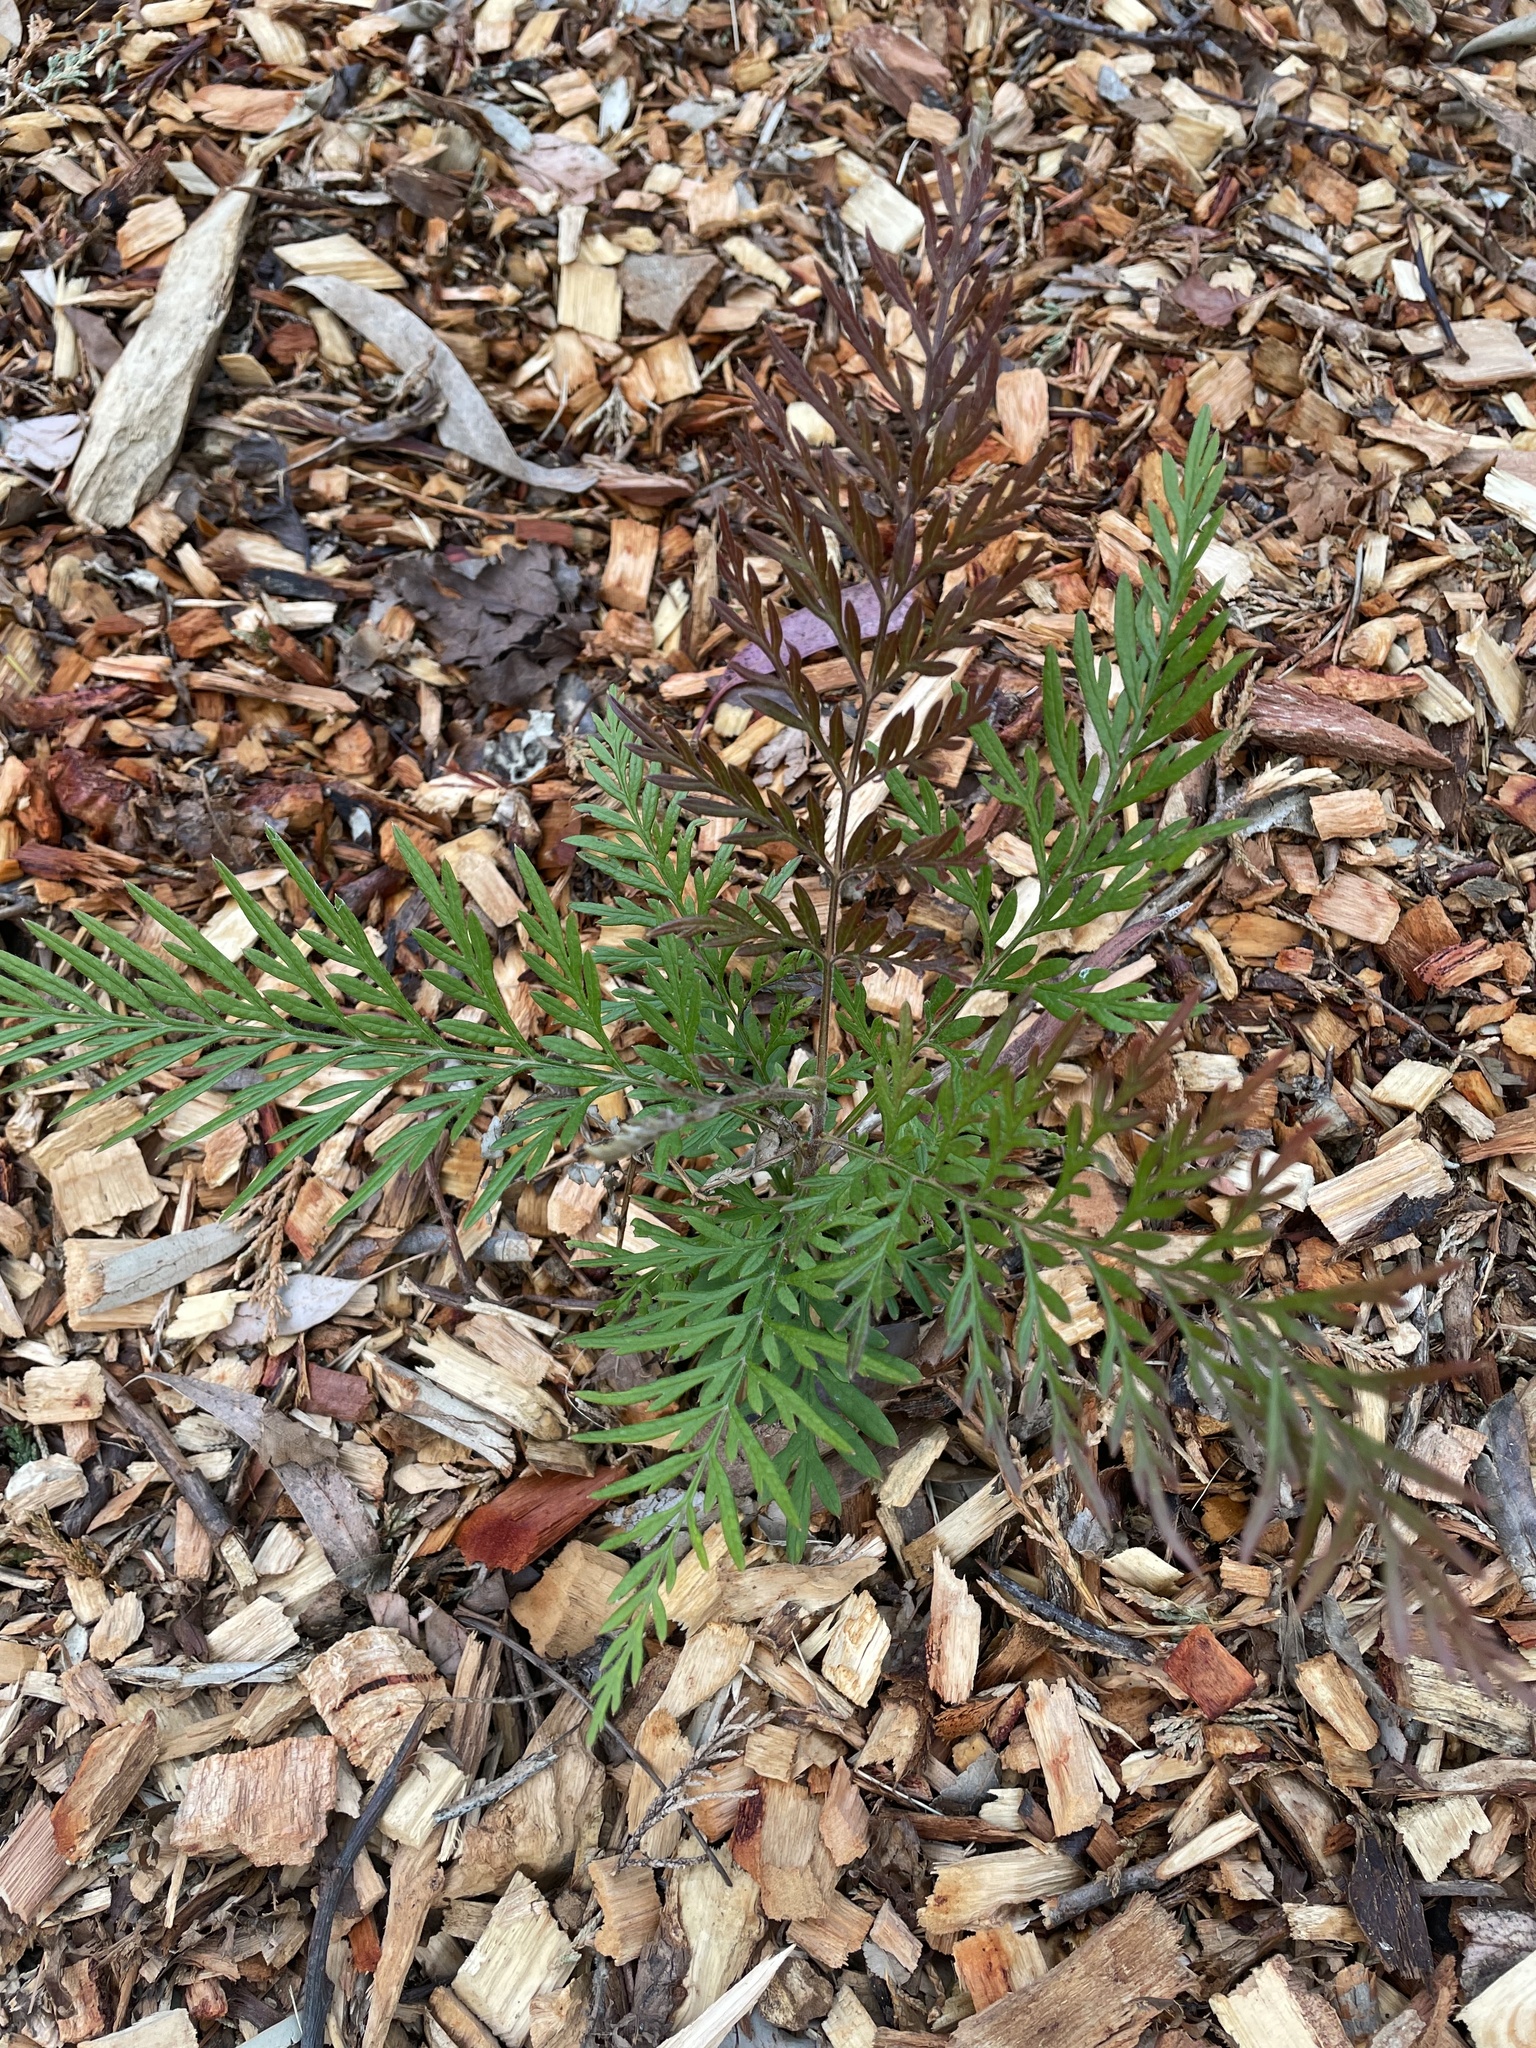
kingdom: Plantae
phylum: Tracheophyta
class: Magnoliopsida
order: Proteales
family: Proteaceae
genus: Grevillea
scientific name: Grevillea
